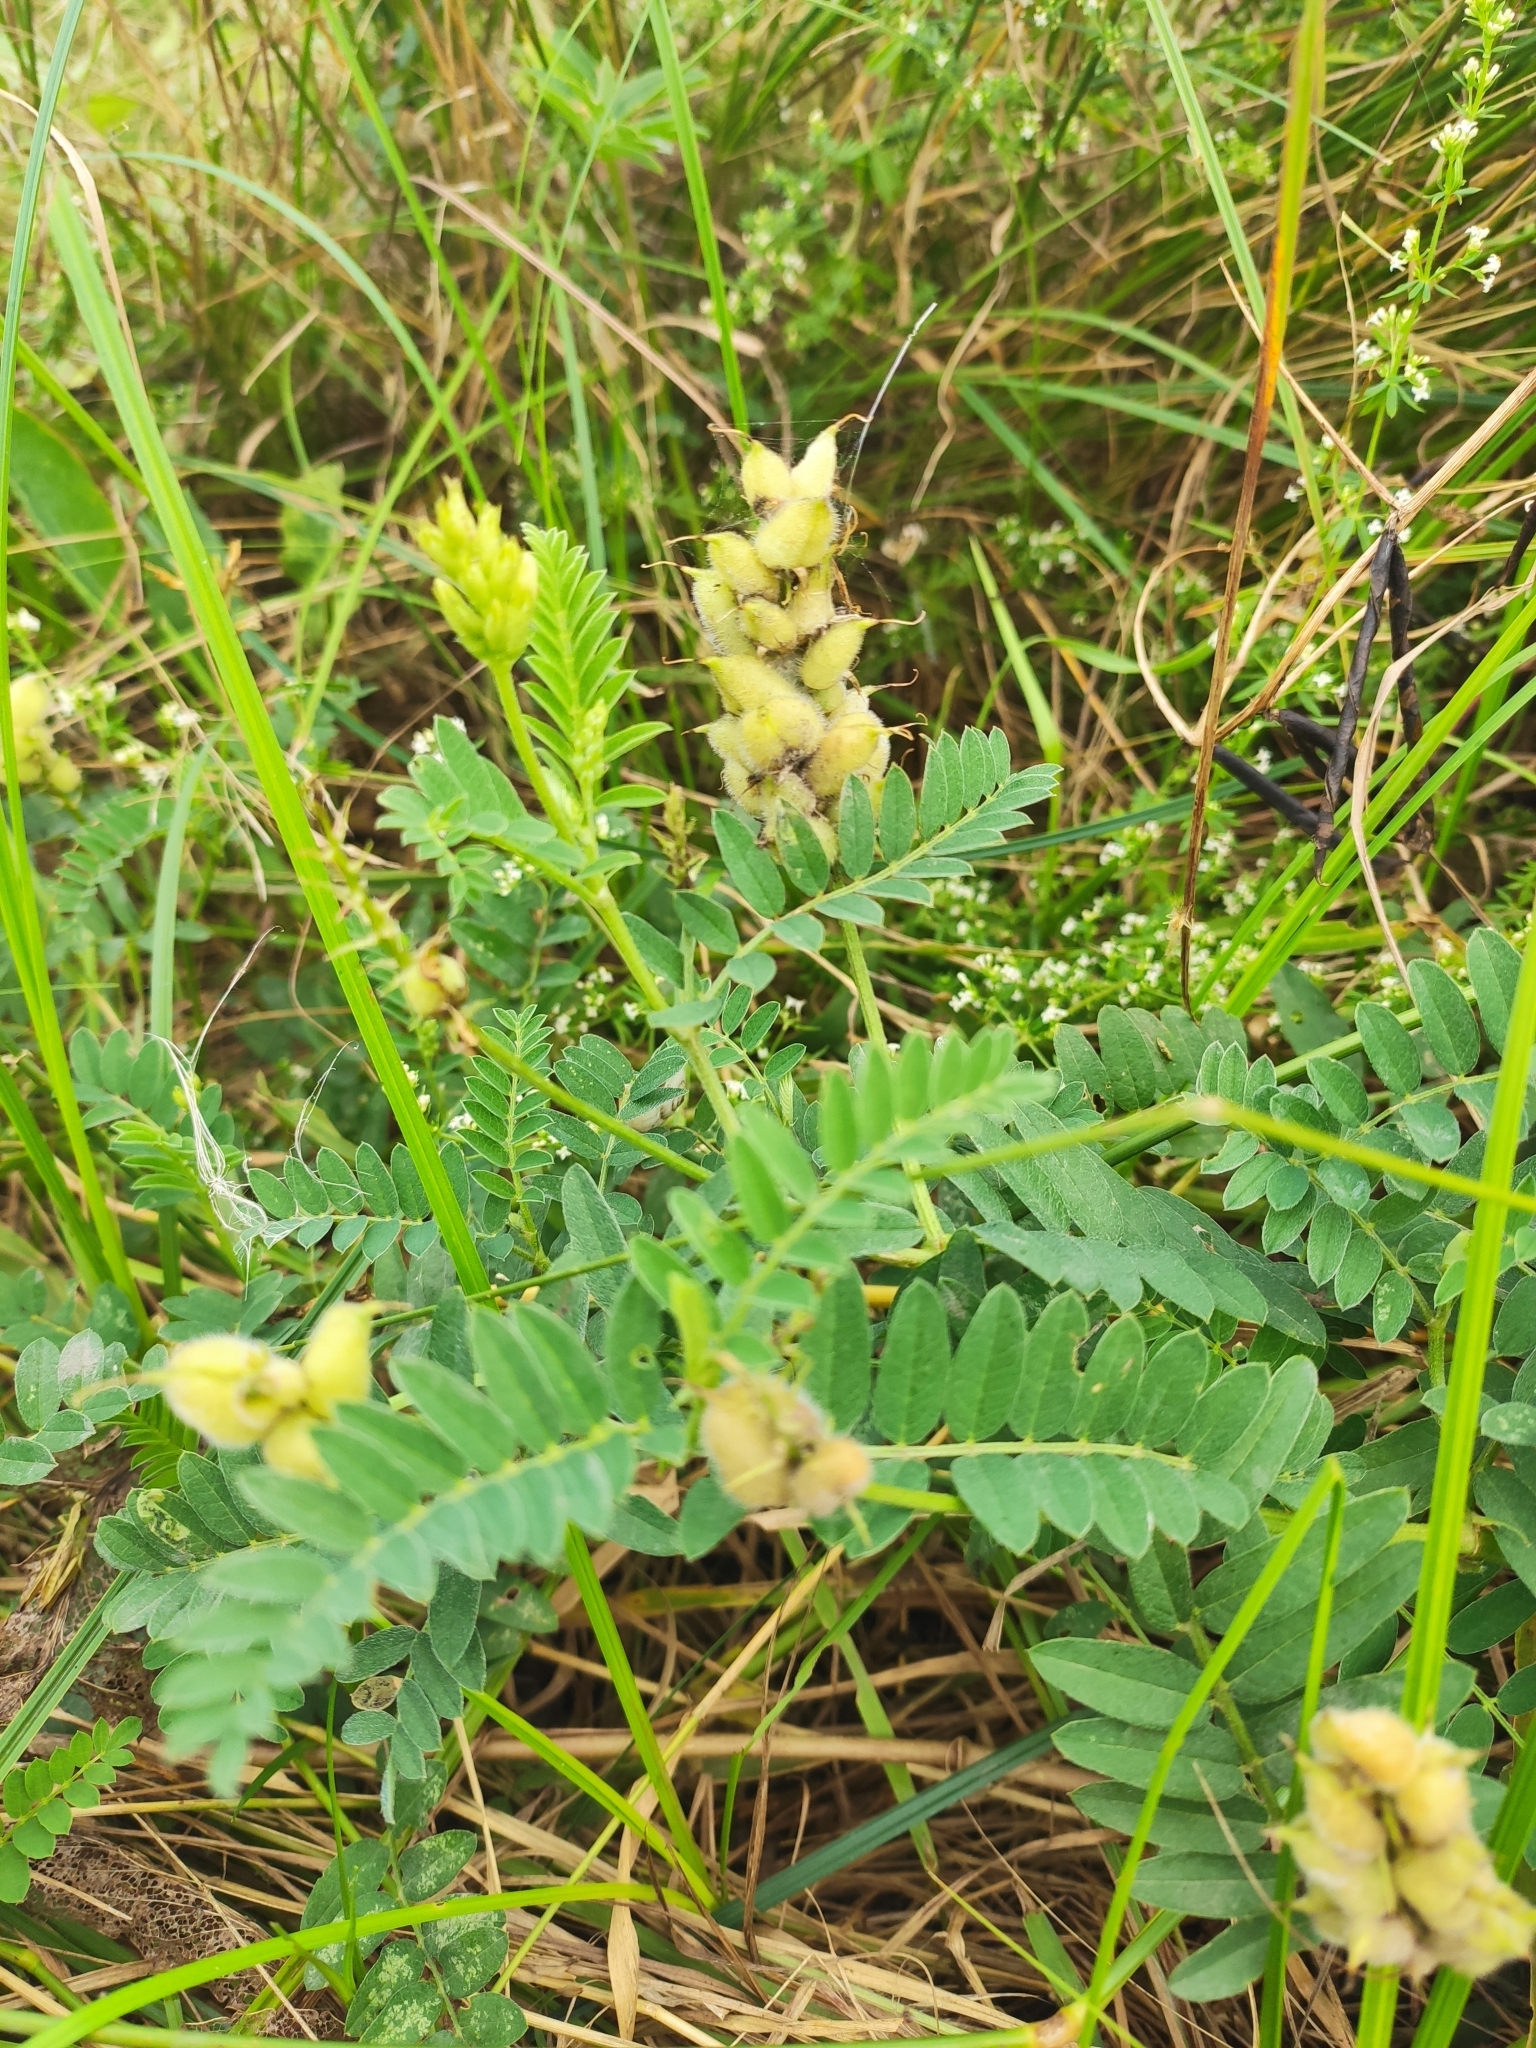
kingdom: Plantae
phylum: Tracheophyta
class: Magnoliopsida
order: Fabales
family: Fabaceae
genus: Astragalus
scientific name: Astragalus cicer
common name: Chick-pea milk-vetch
